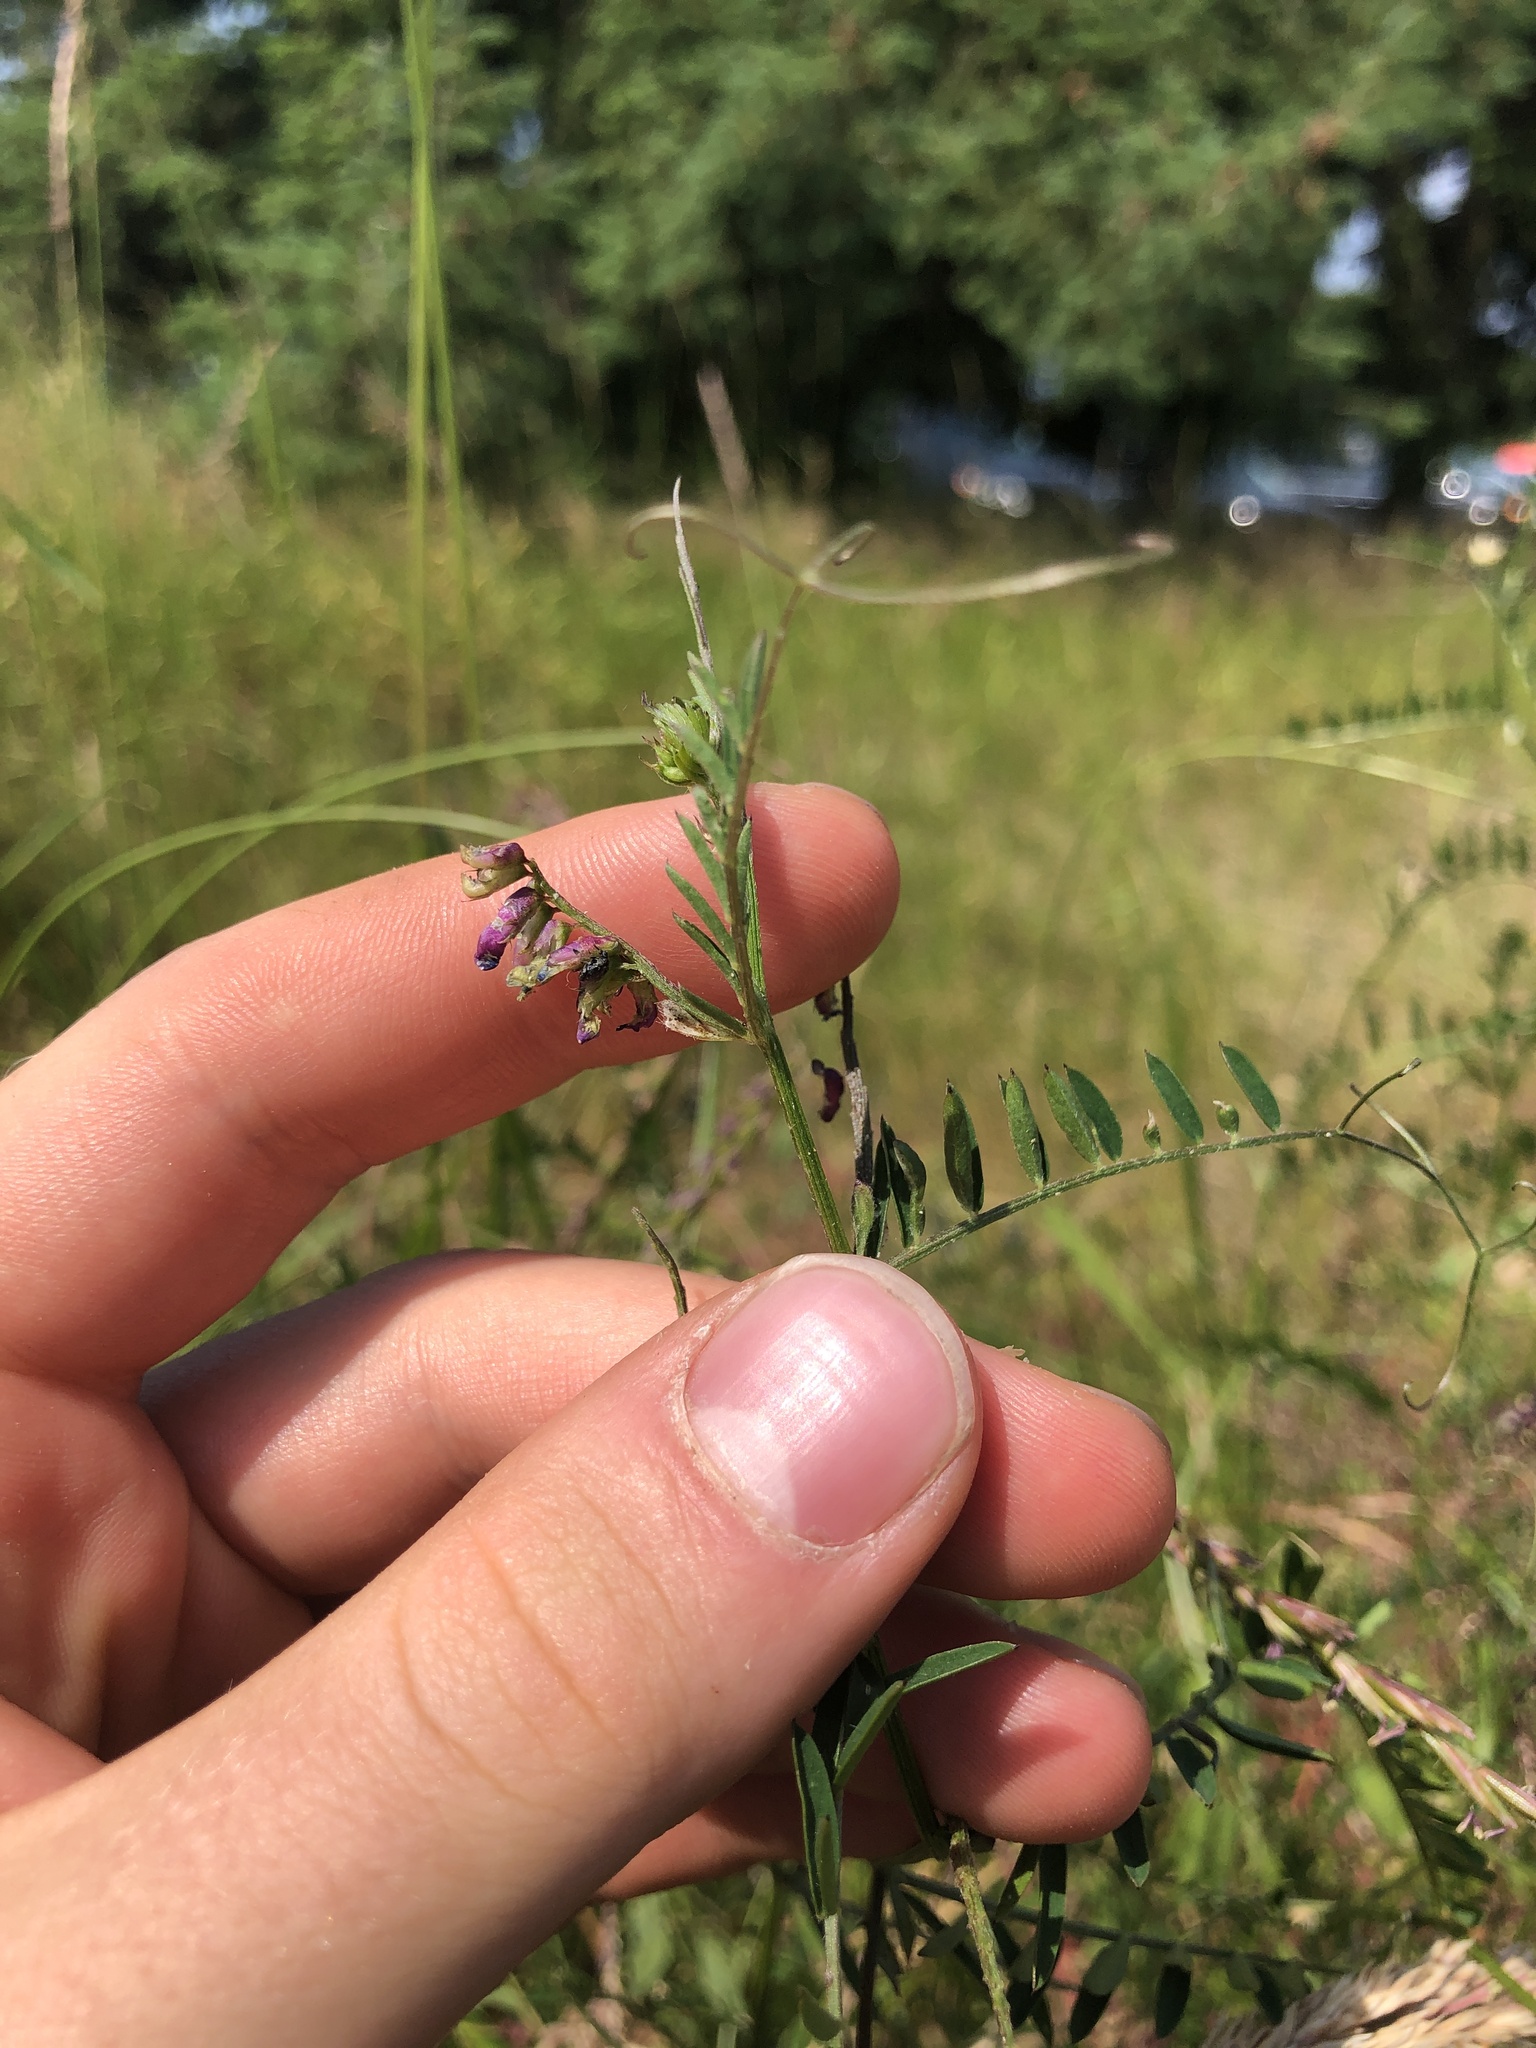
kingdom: Plantae
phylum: Tracheophyta
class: Magnoliopsida
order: Fabales
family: Fabaceae
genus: Vicia
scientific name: Vicia villosa
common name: Fodder vetch
